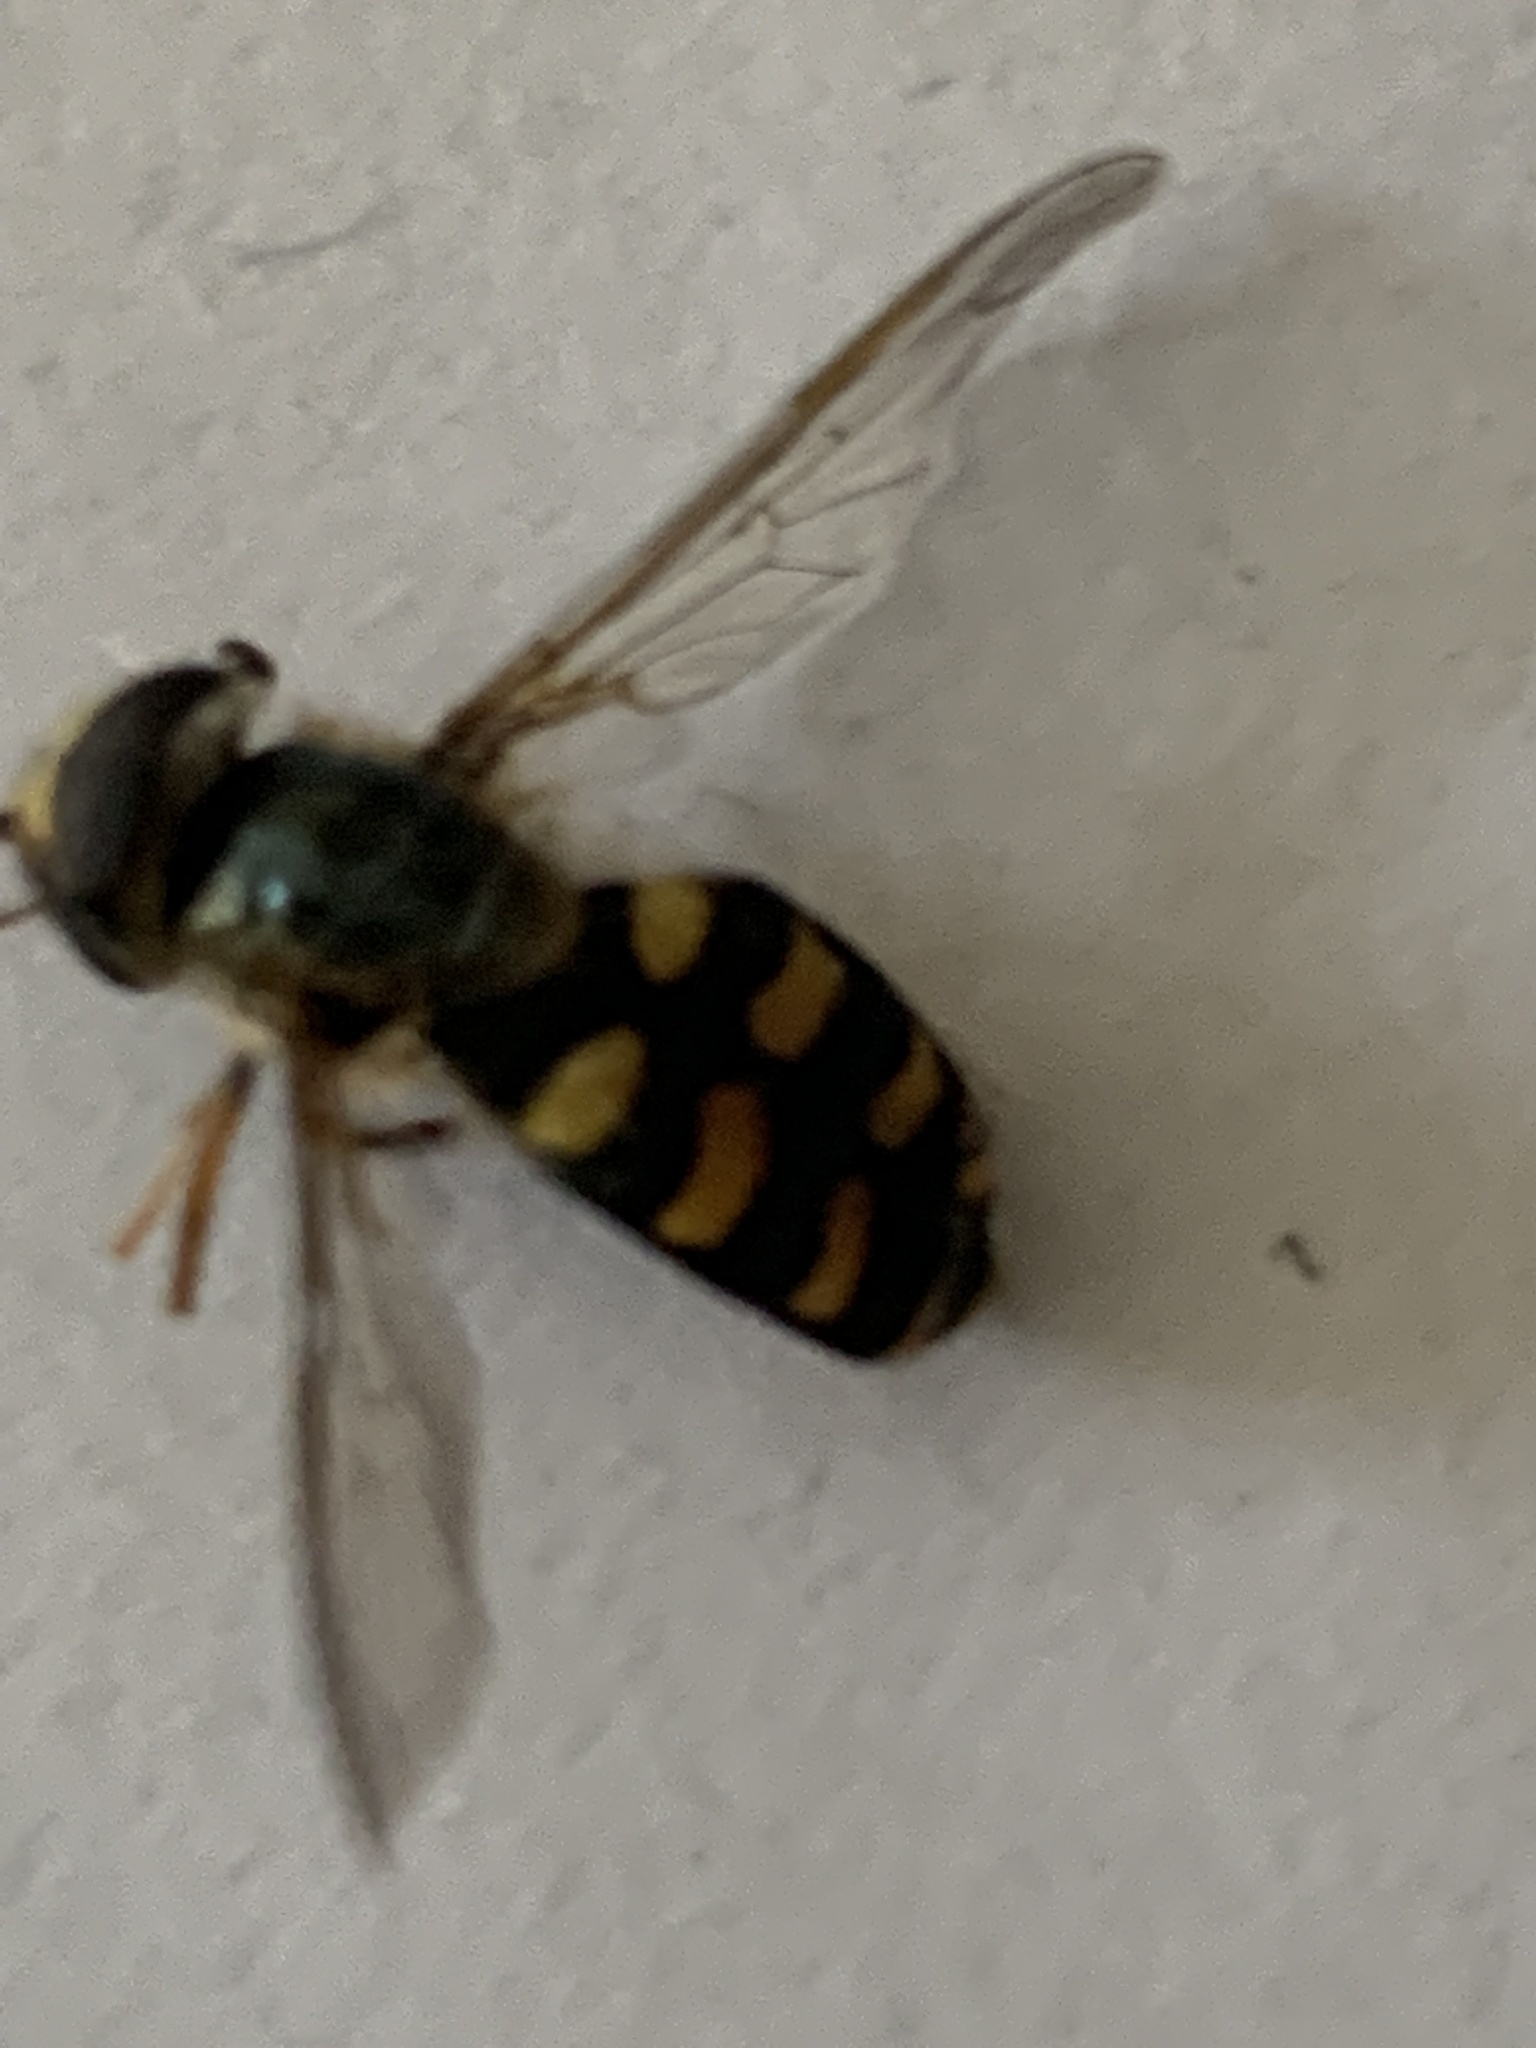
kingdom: Animalia
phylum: Arthropoda
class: Insecta
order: Diptera
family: Syrphidae
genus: Eupeodes
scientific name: Eupeodes
